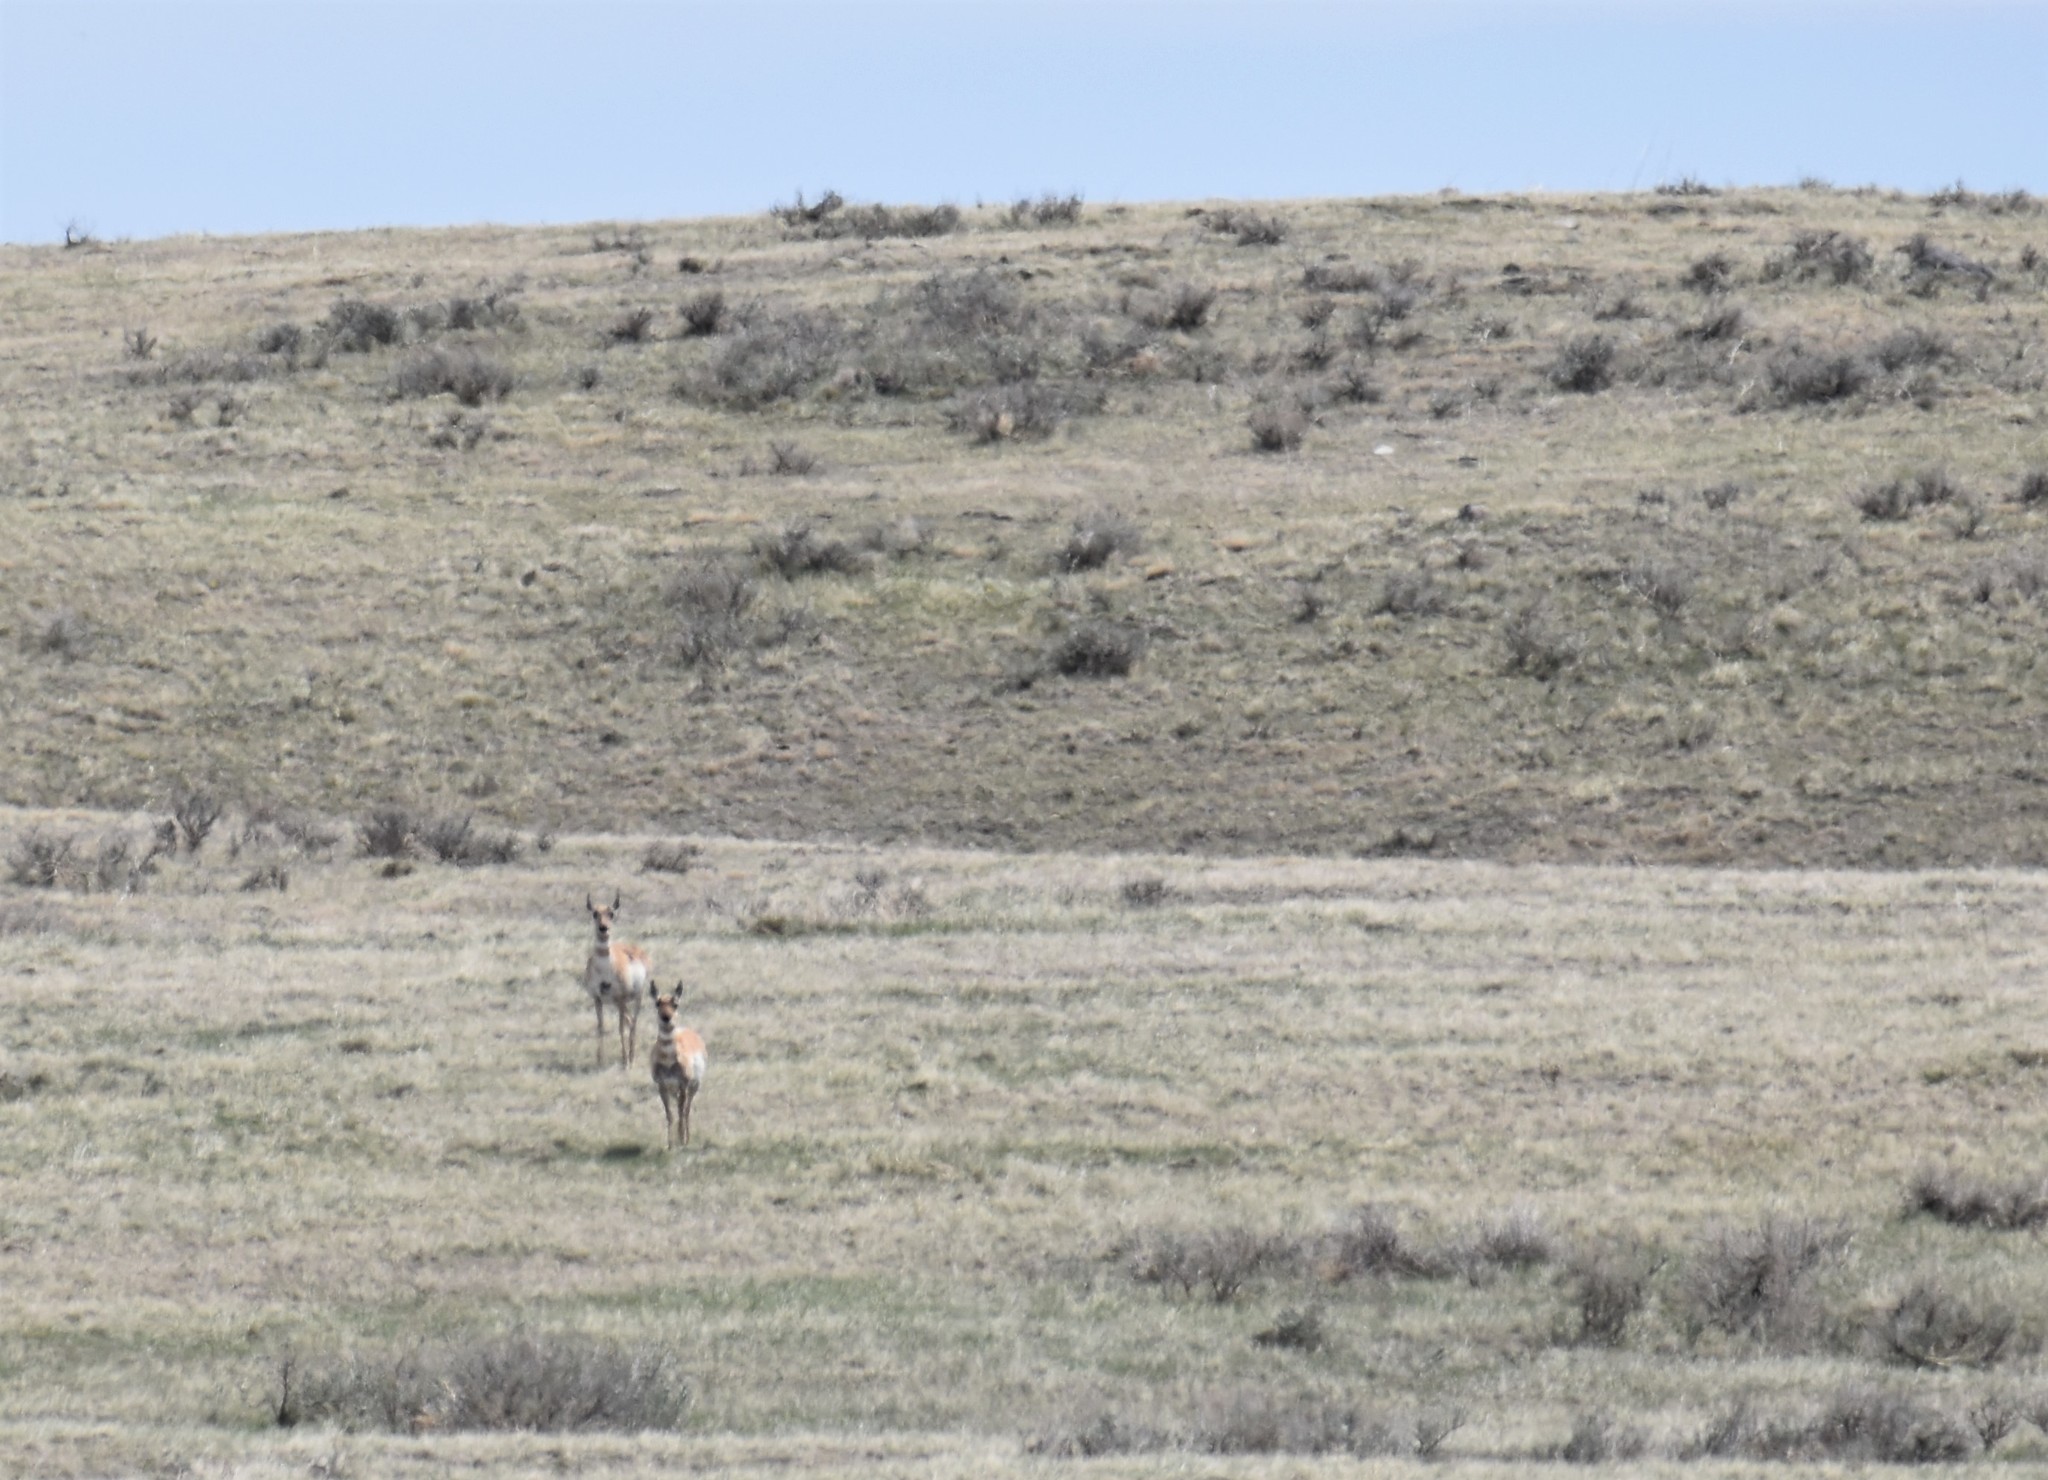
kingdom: Animalia
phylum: Chordata
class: Mammalia
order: Artiodactyla
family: Antilocapridae
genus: Antilocapra
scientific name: Antilocapra americana
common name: Pronghorn
